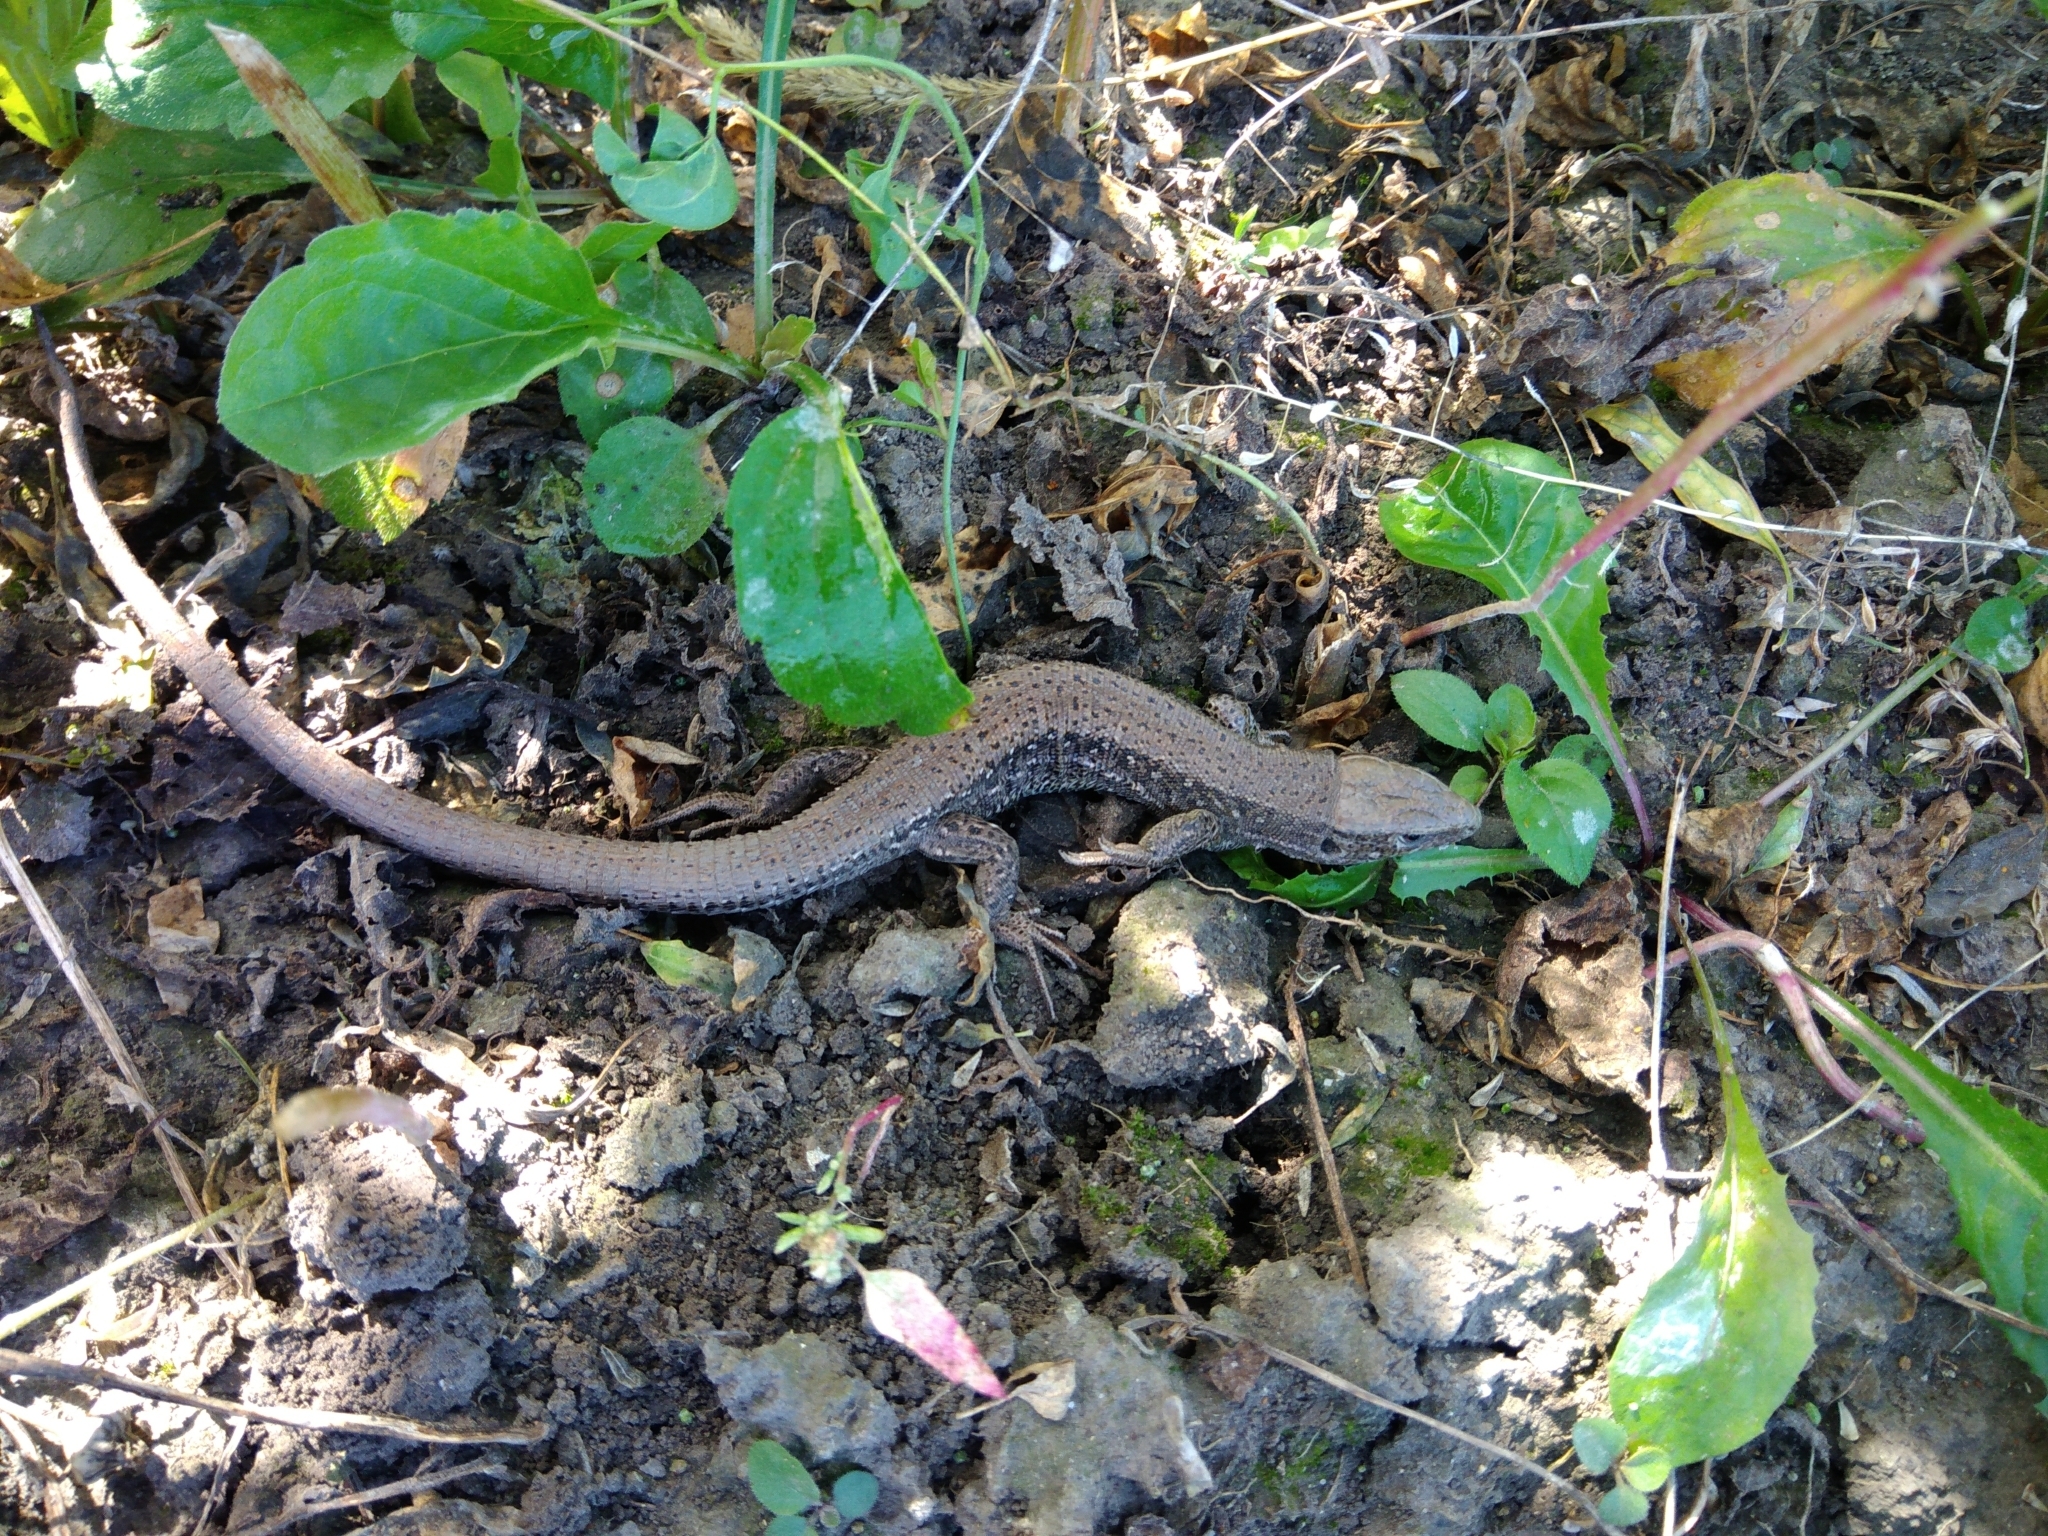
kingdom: Animalia
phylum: Chordata
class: Squamata
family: Lacertidae
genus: Zootoca
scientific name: Zootoca vivipara
